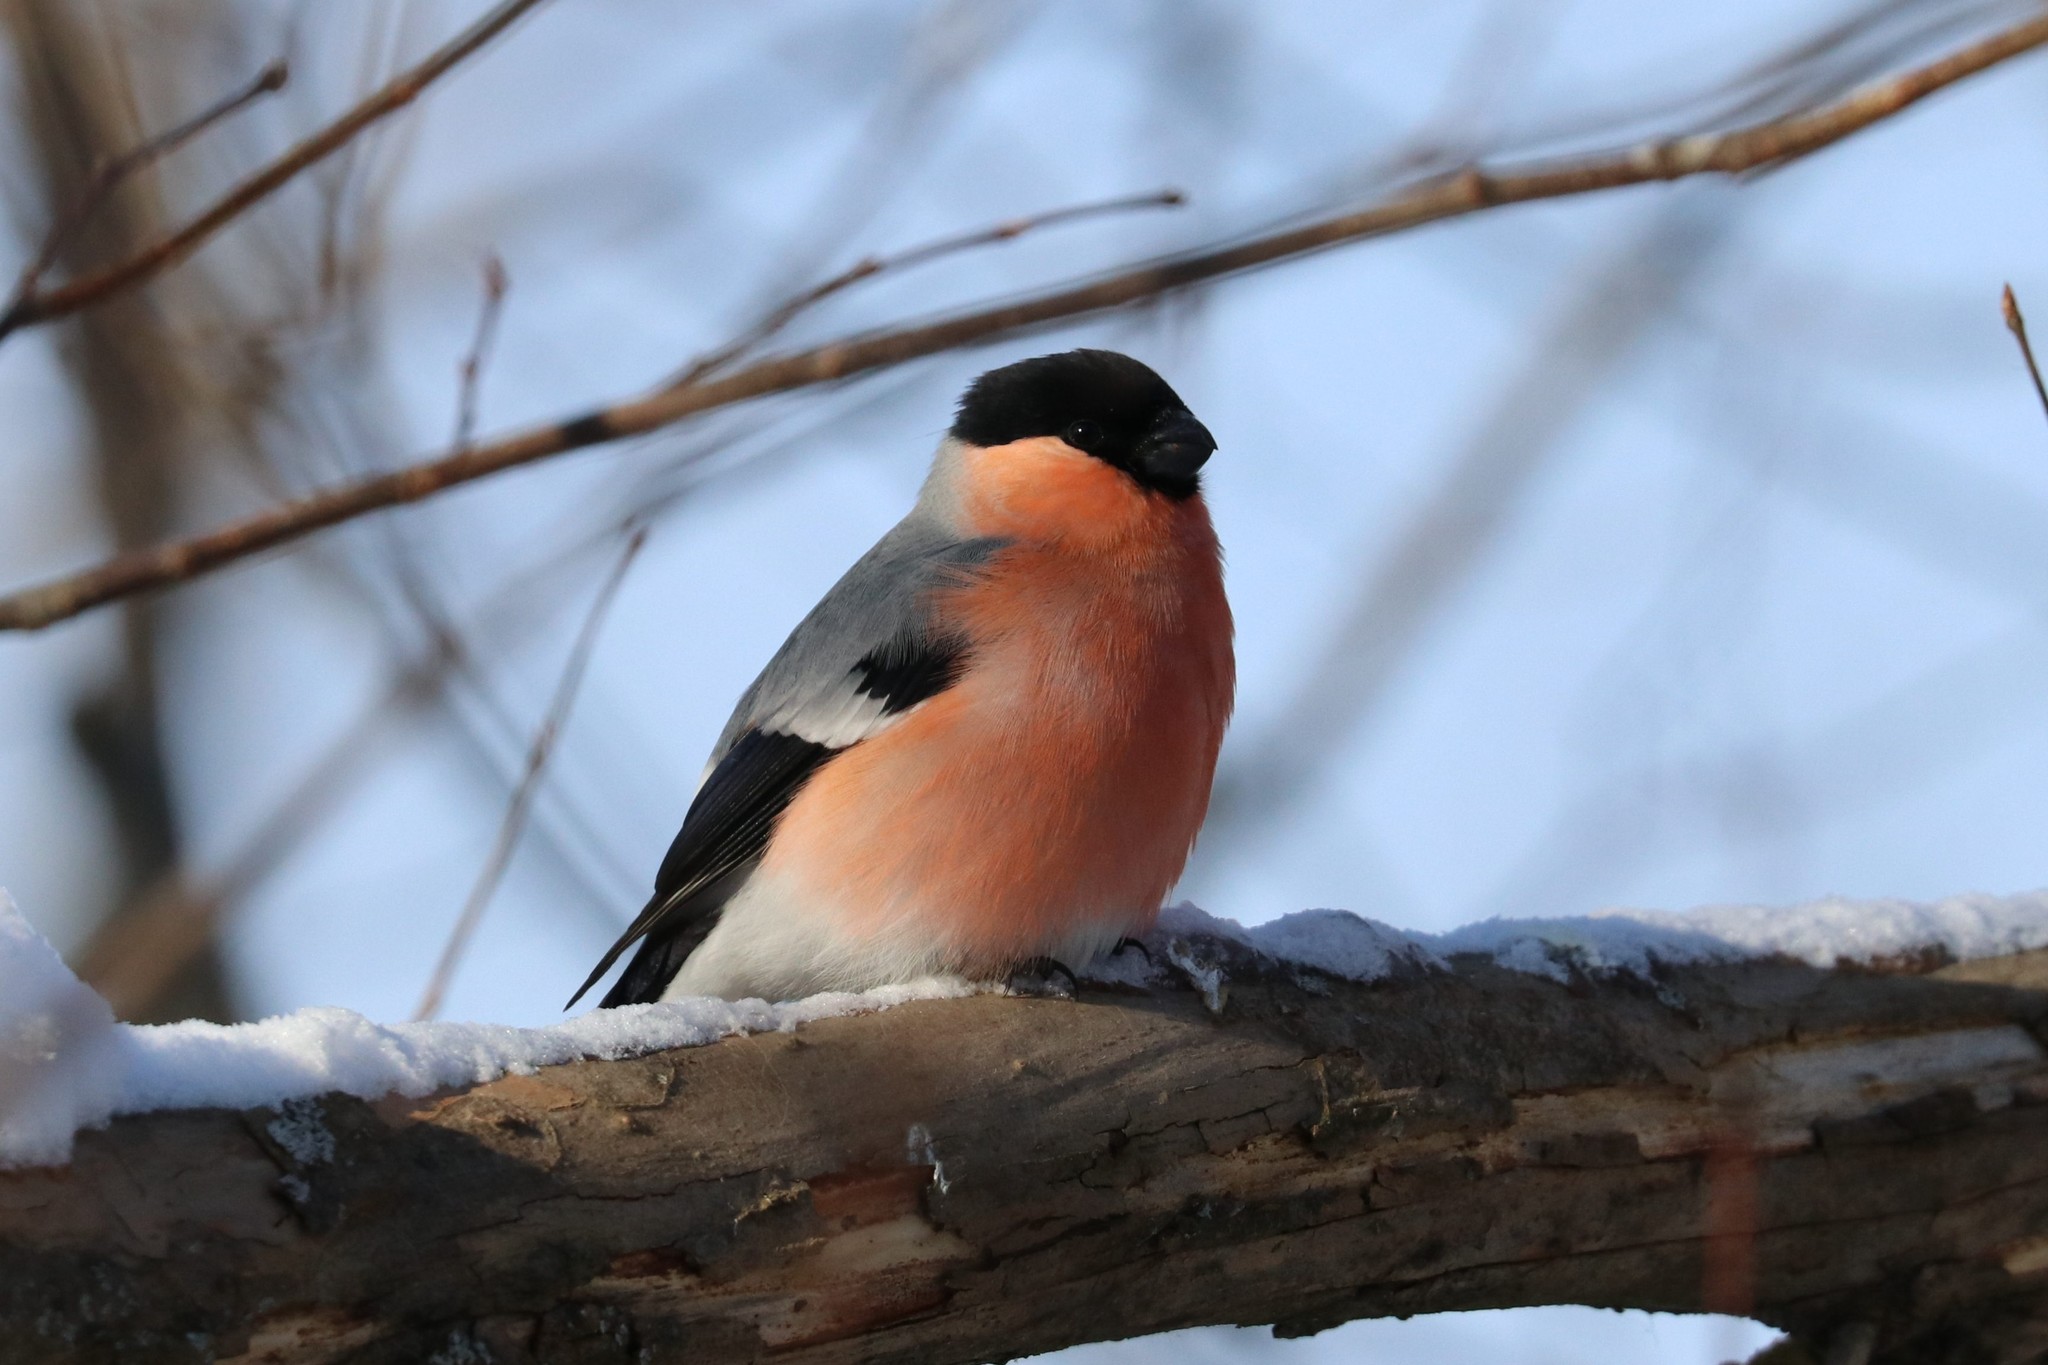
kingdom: Animalia
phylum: Chordata
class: Aves
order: Passeriformes
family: Fringillidae
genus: Pyrrhula
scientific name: Pyrrhula pyrrhula
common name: Eurasian bullfinch
